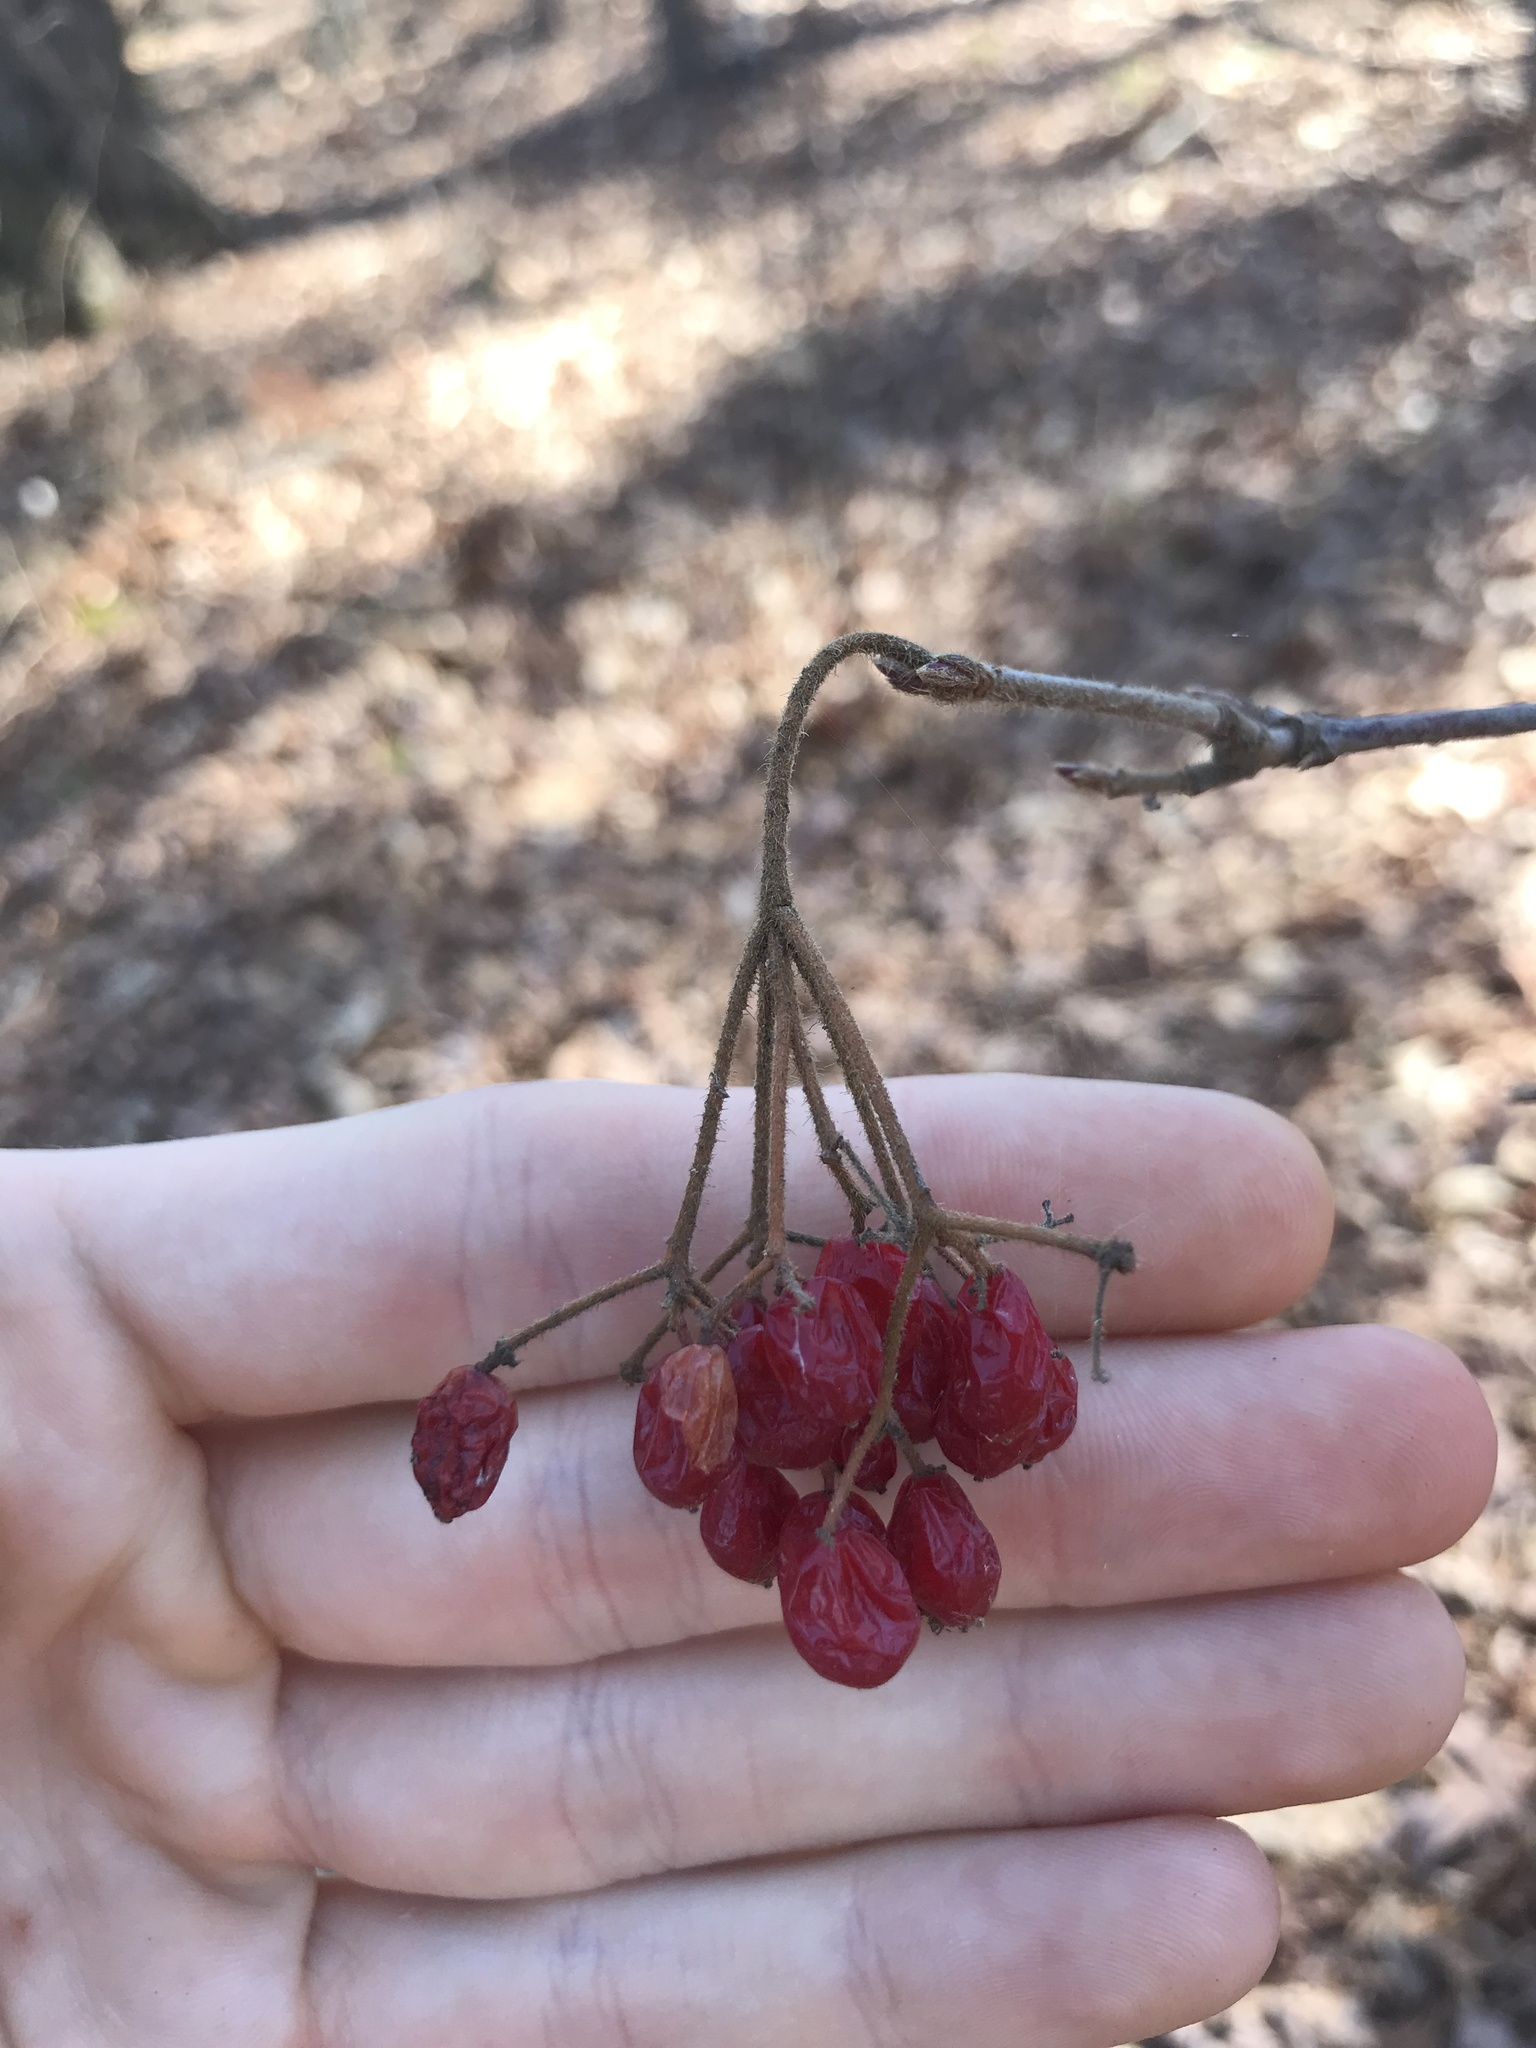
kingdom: Plantae
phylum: Tracheophyta
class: Magnoliopsida
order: Dipsacales
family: Viburnaceae
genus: Viburnum
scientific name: Viburnum dilatatum
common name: Linden arrowwood
